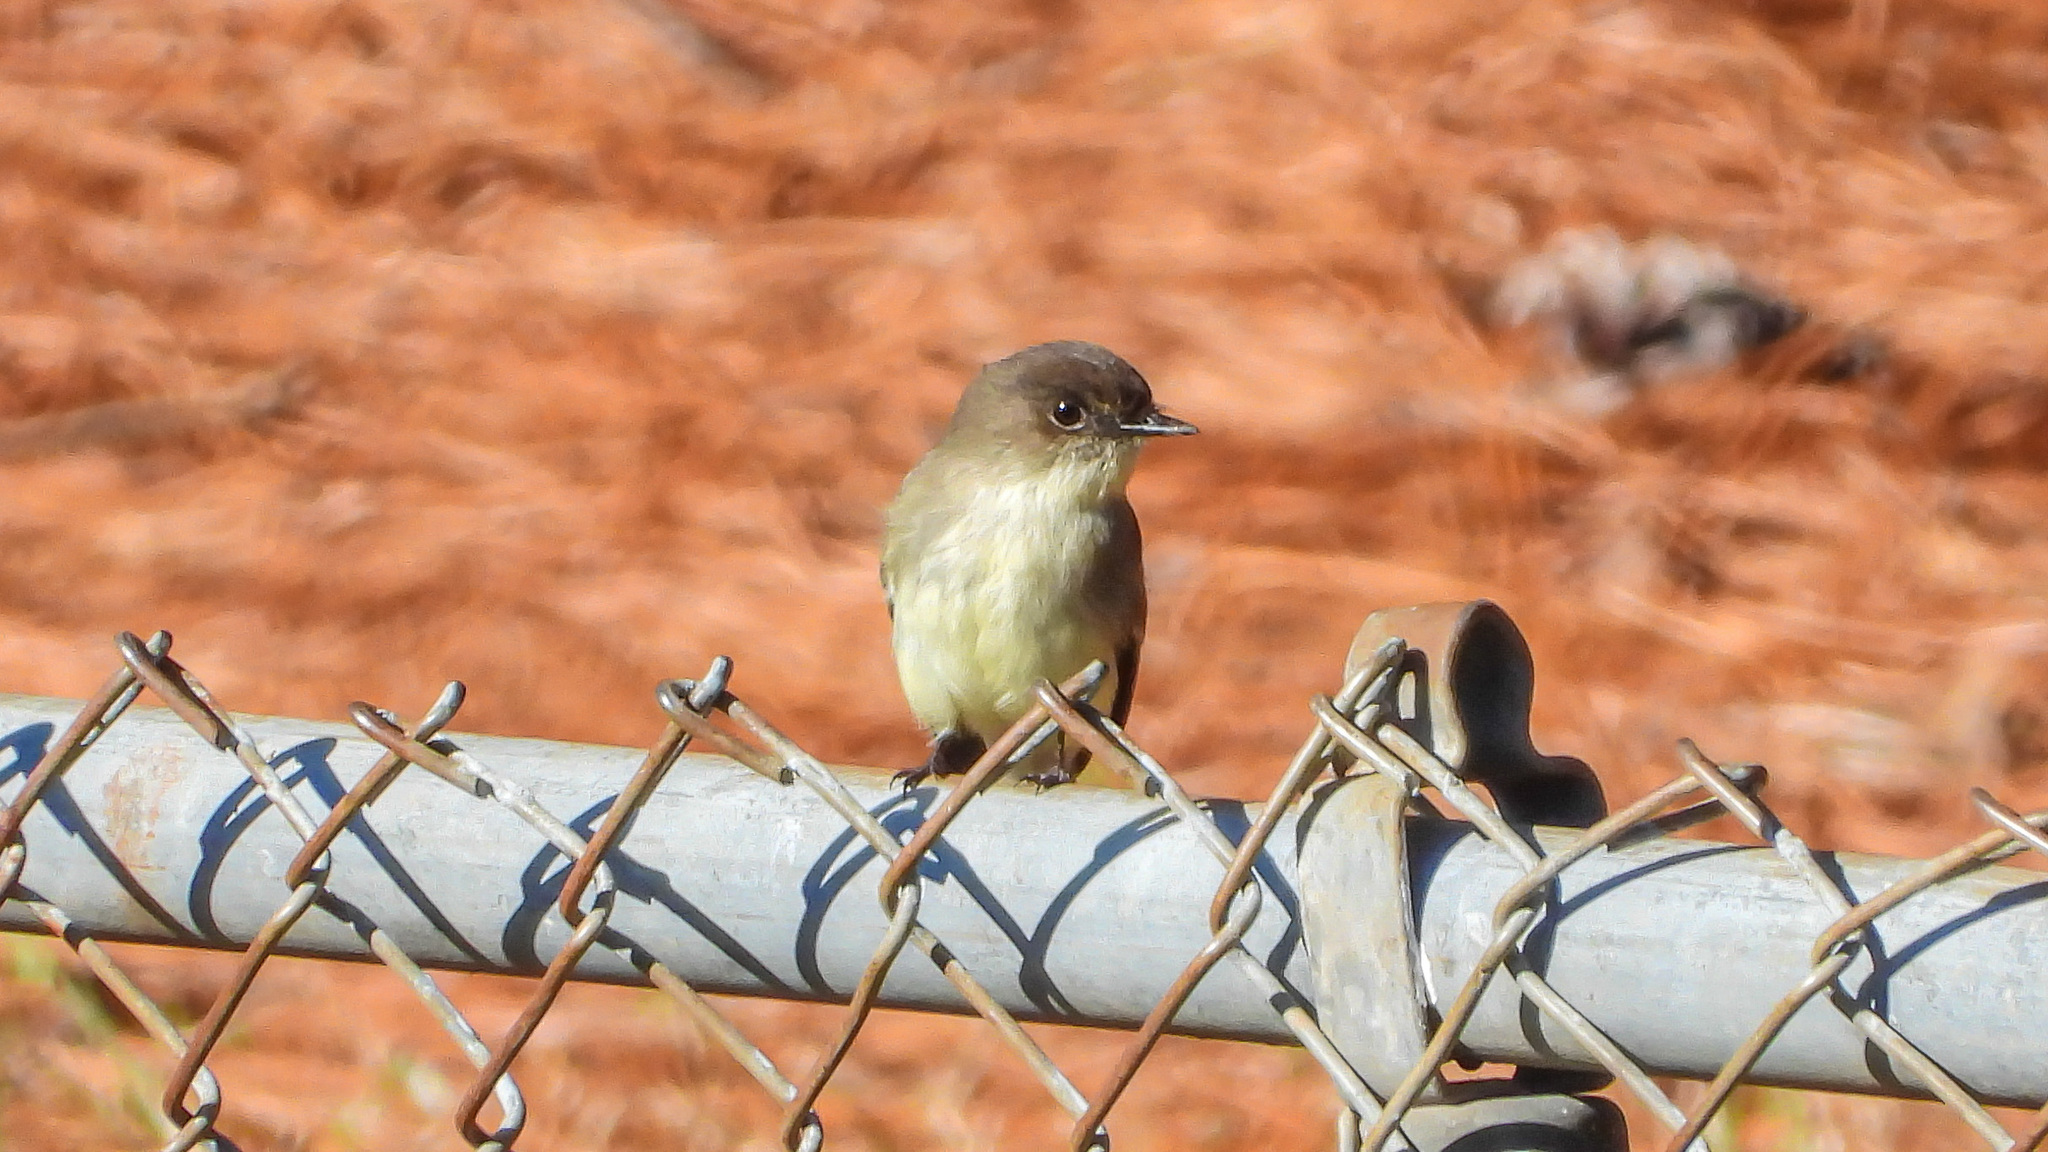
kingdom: Animalia
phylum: Chordata
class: Aves
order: Passeriformes
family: Tyrannidae
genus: Sayornis
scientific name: Sayornis phoebe
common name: Eastern phoebe
